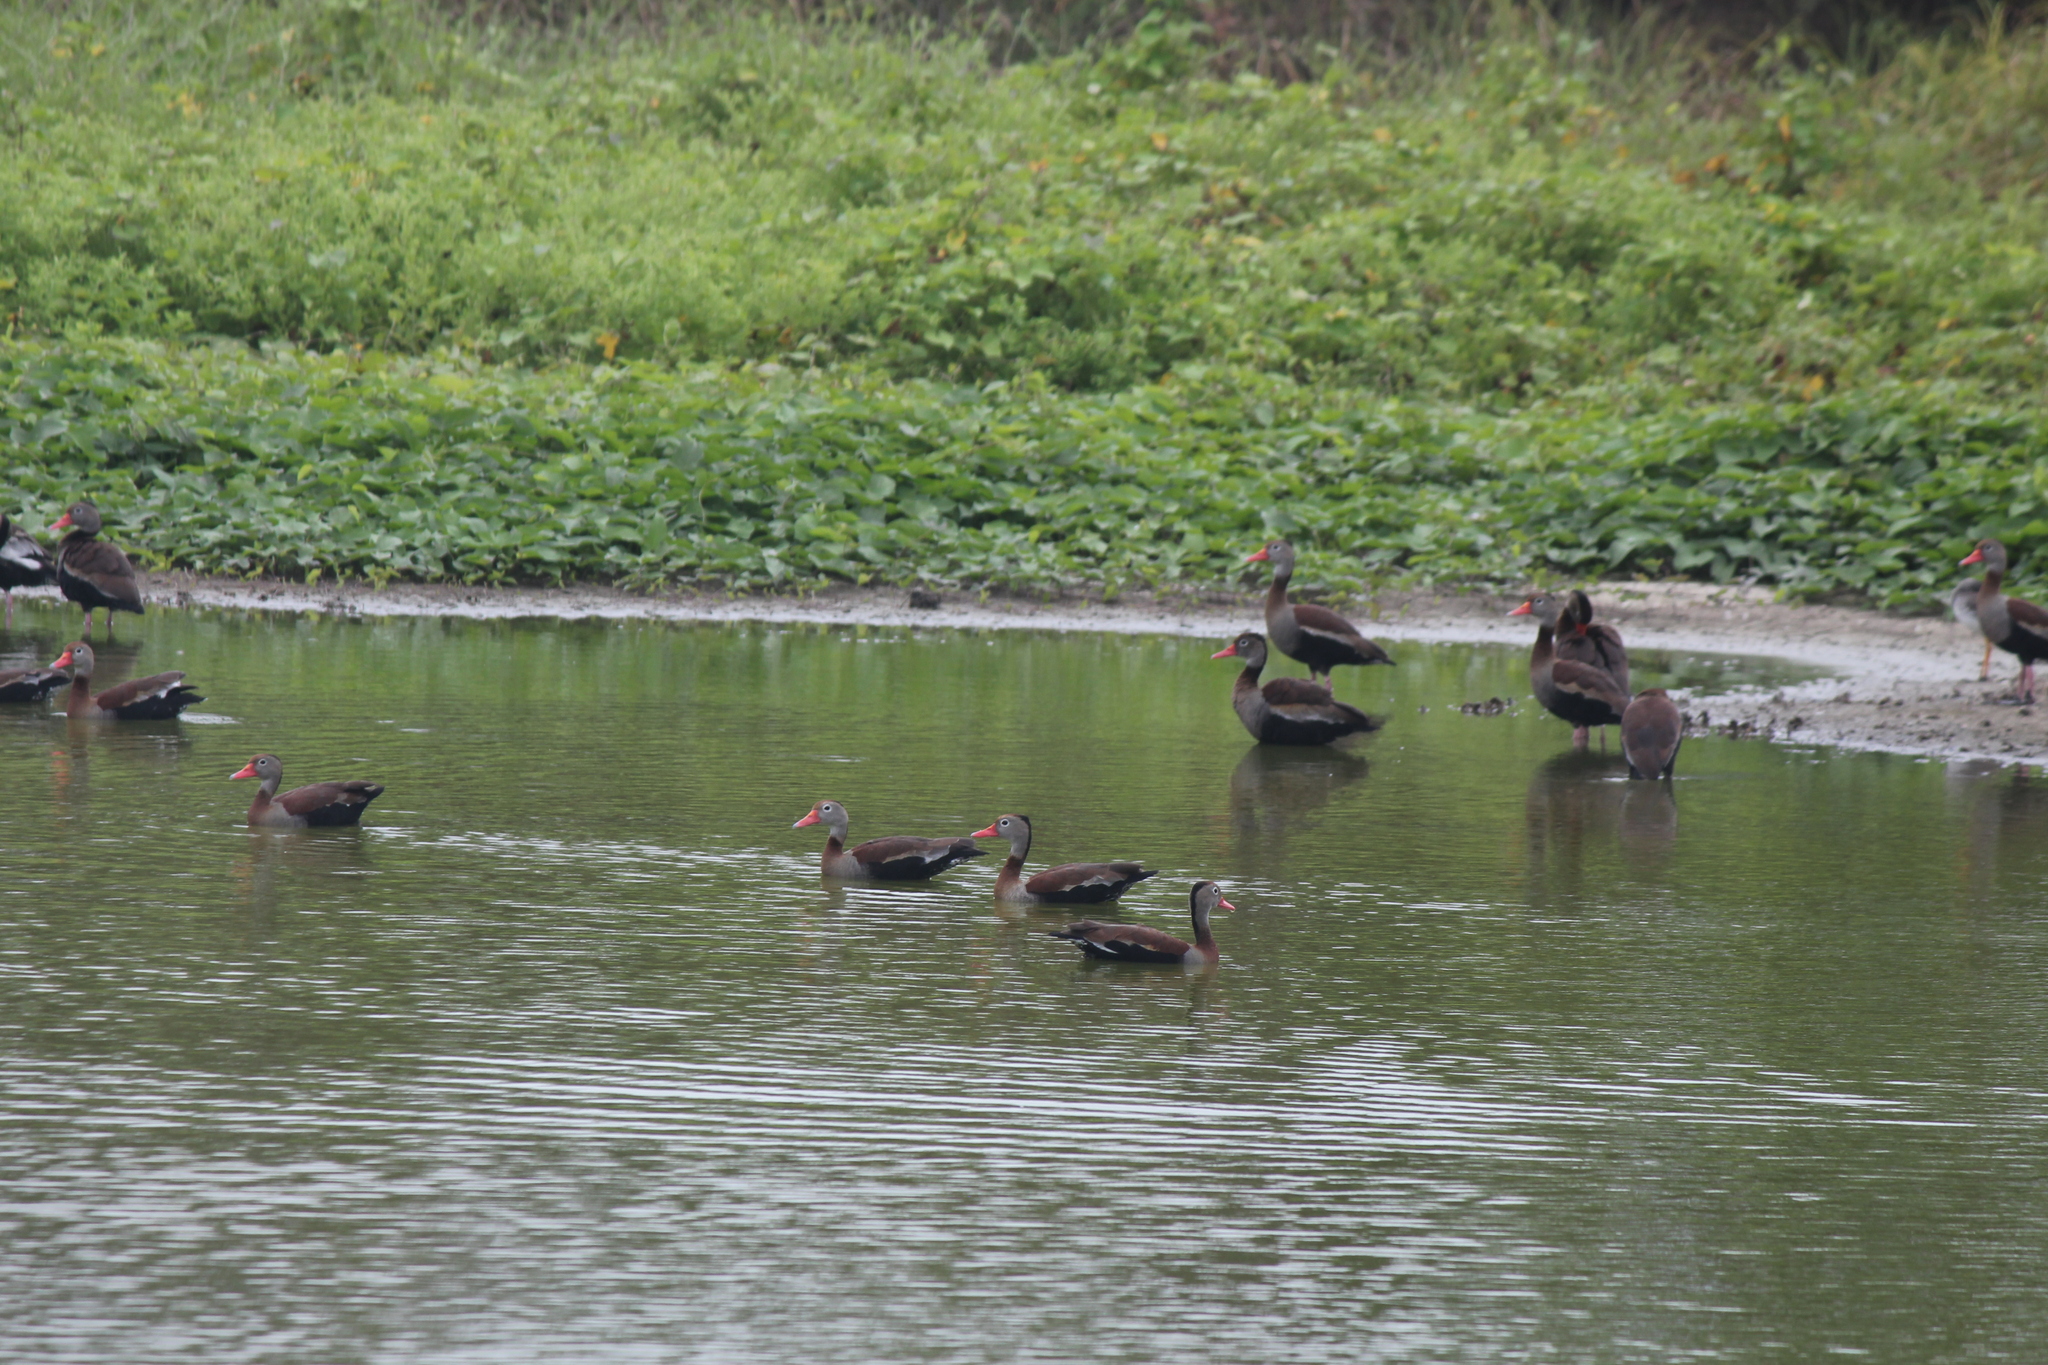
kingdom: Animalia
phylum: Chordata
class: Aves
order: Anseriformes
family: Anatidae
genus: Dendrocygna
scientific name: Dendrocygna autumnalis
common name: Black-bellied whistling duck
